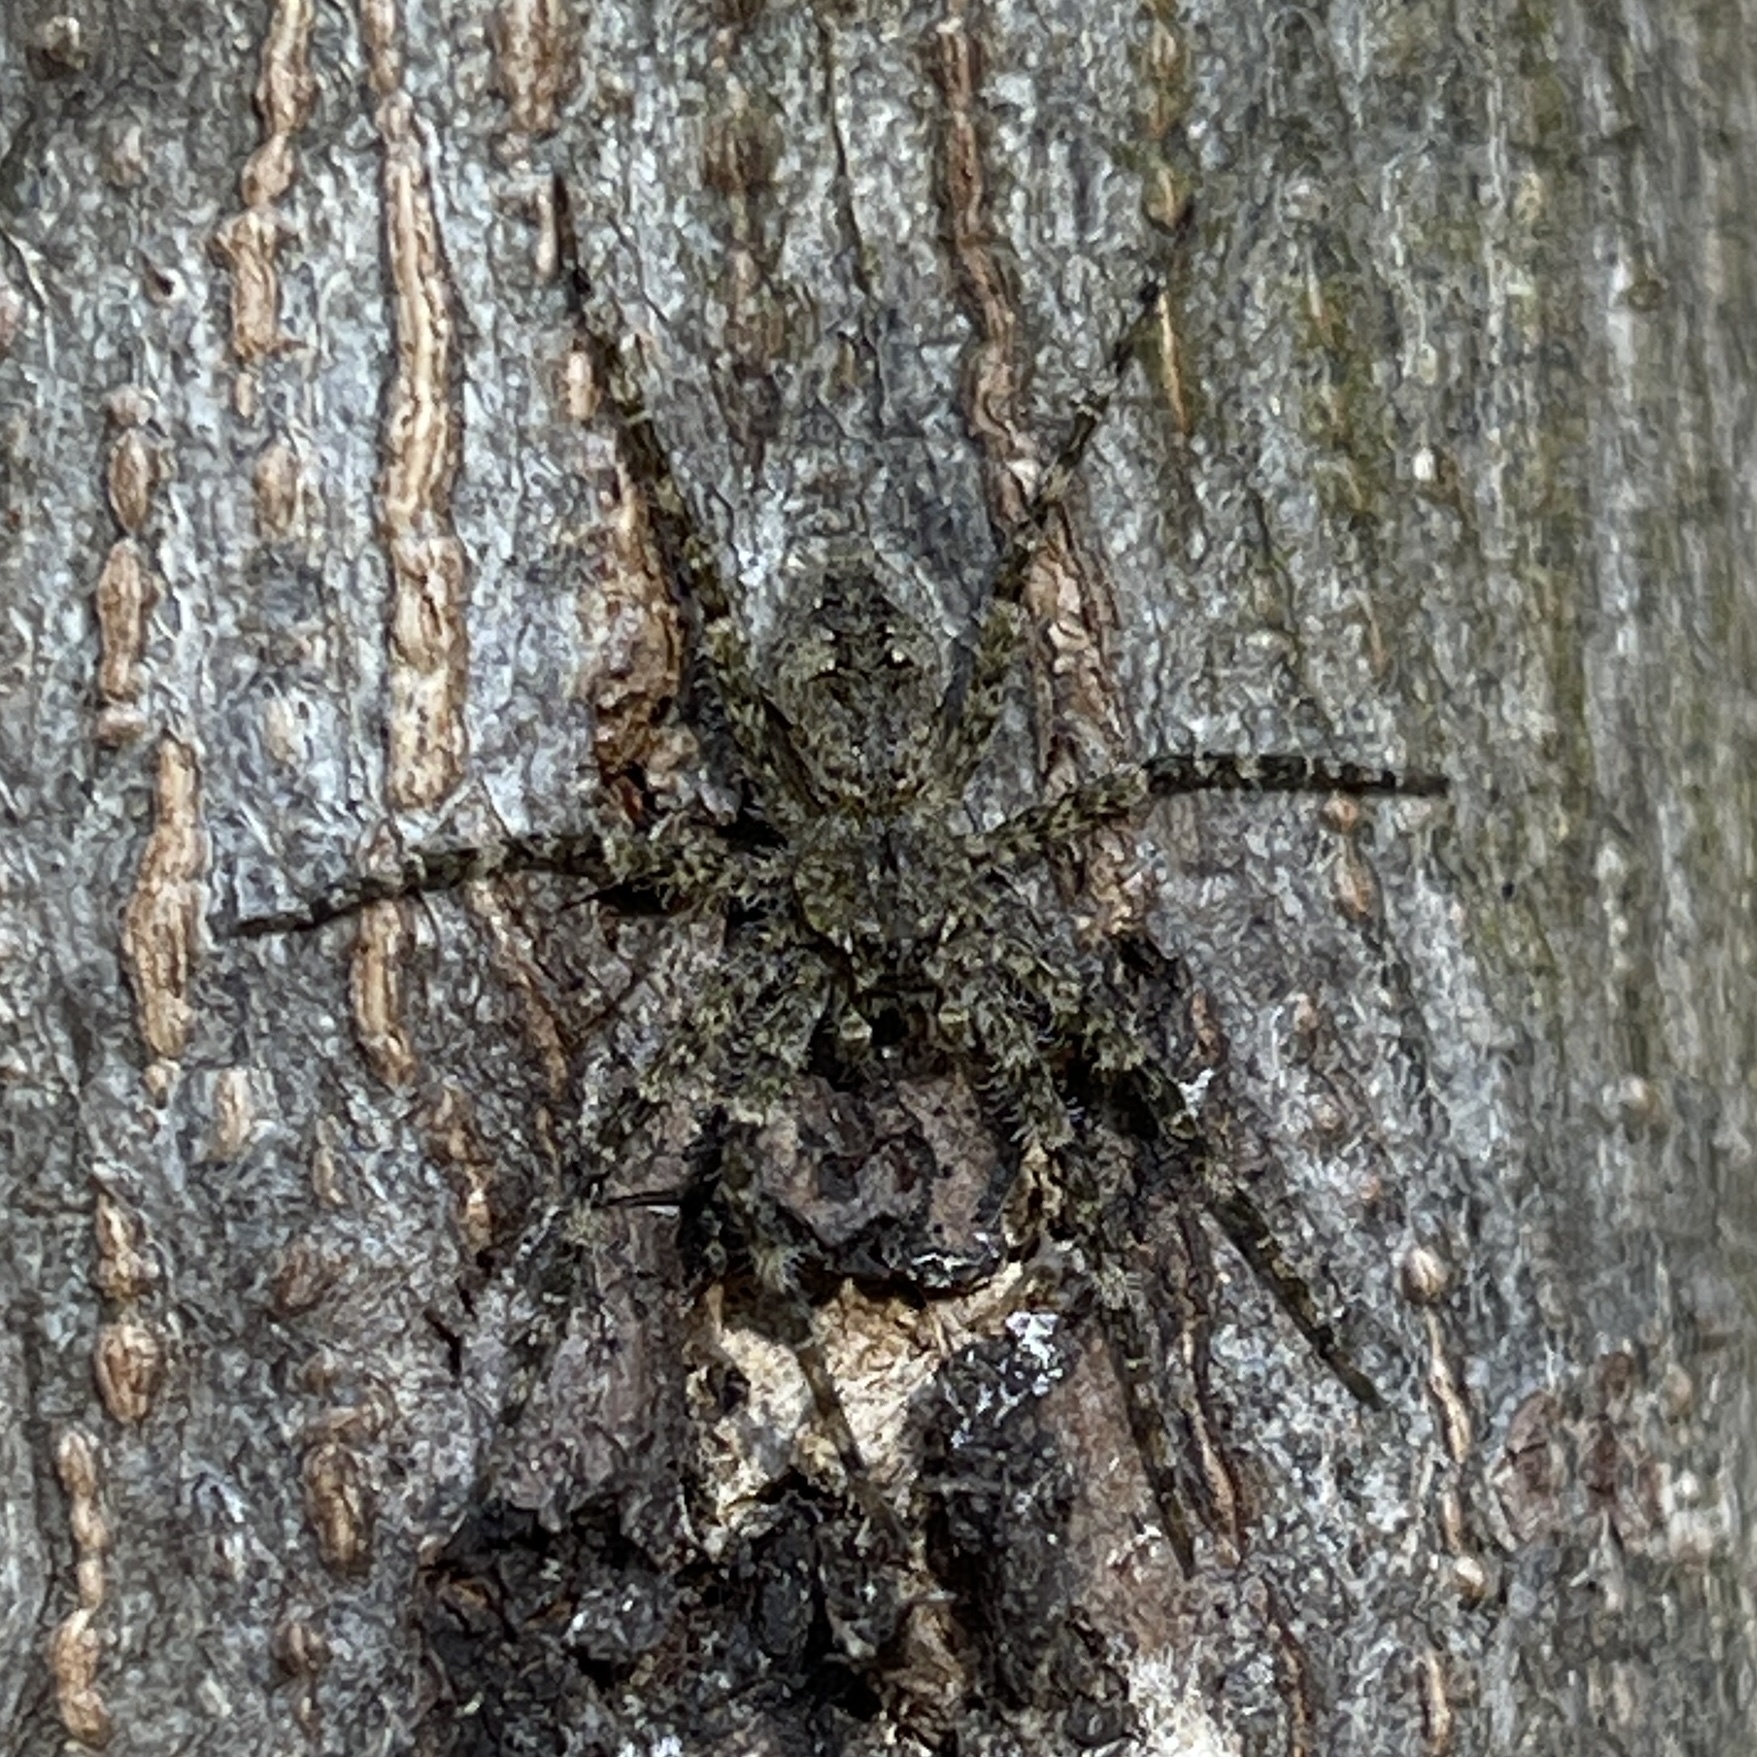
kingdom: Animalia
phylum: Arthropoda
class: Arachnida
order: Araneae
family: Pisauridae
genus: Dolomedes
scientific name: Dolomedes albineus
